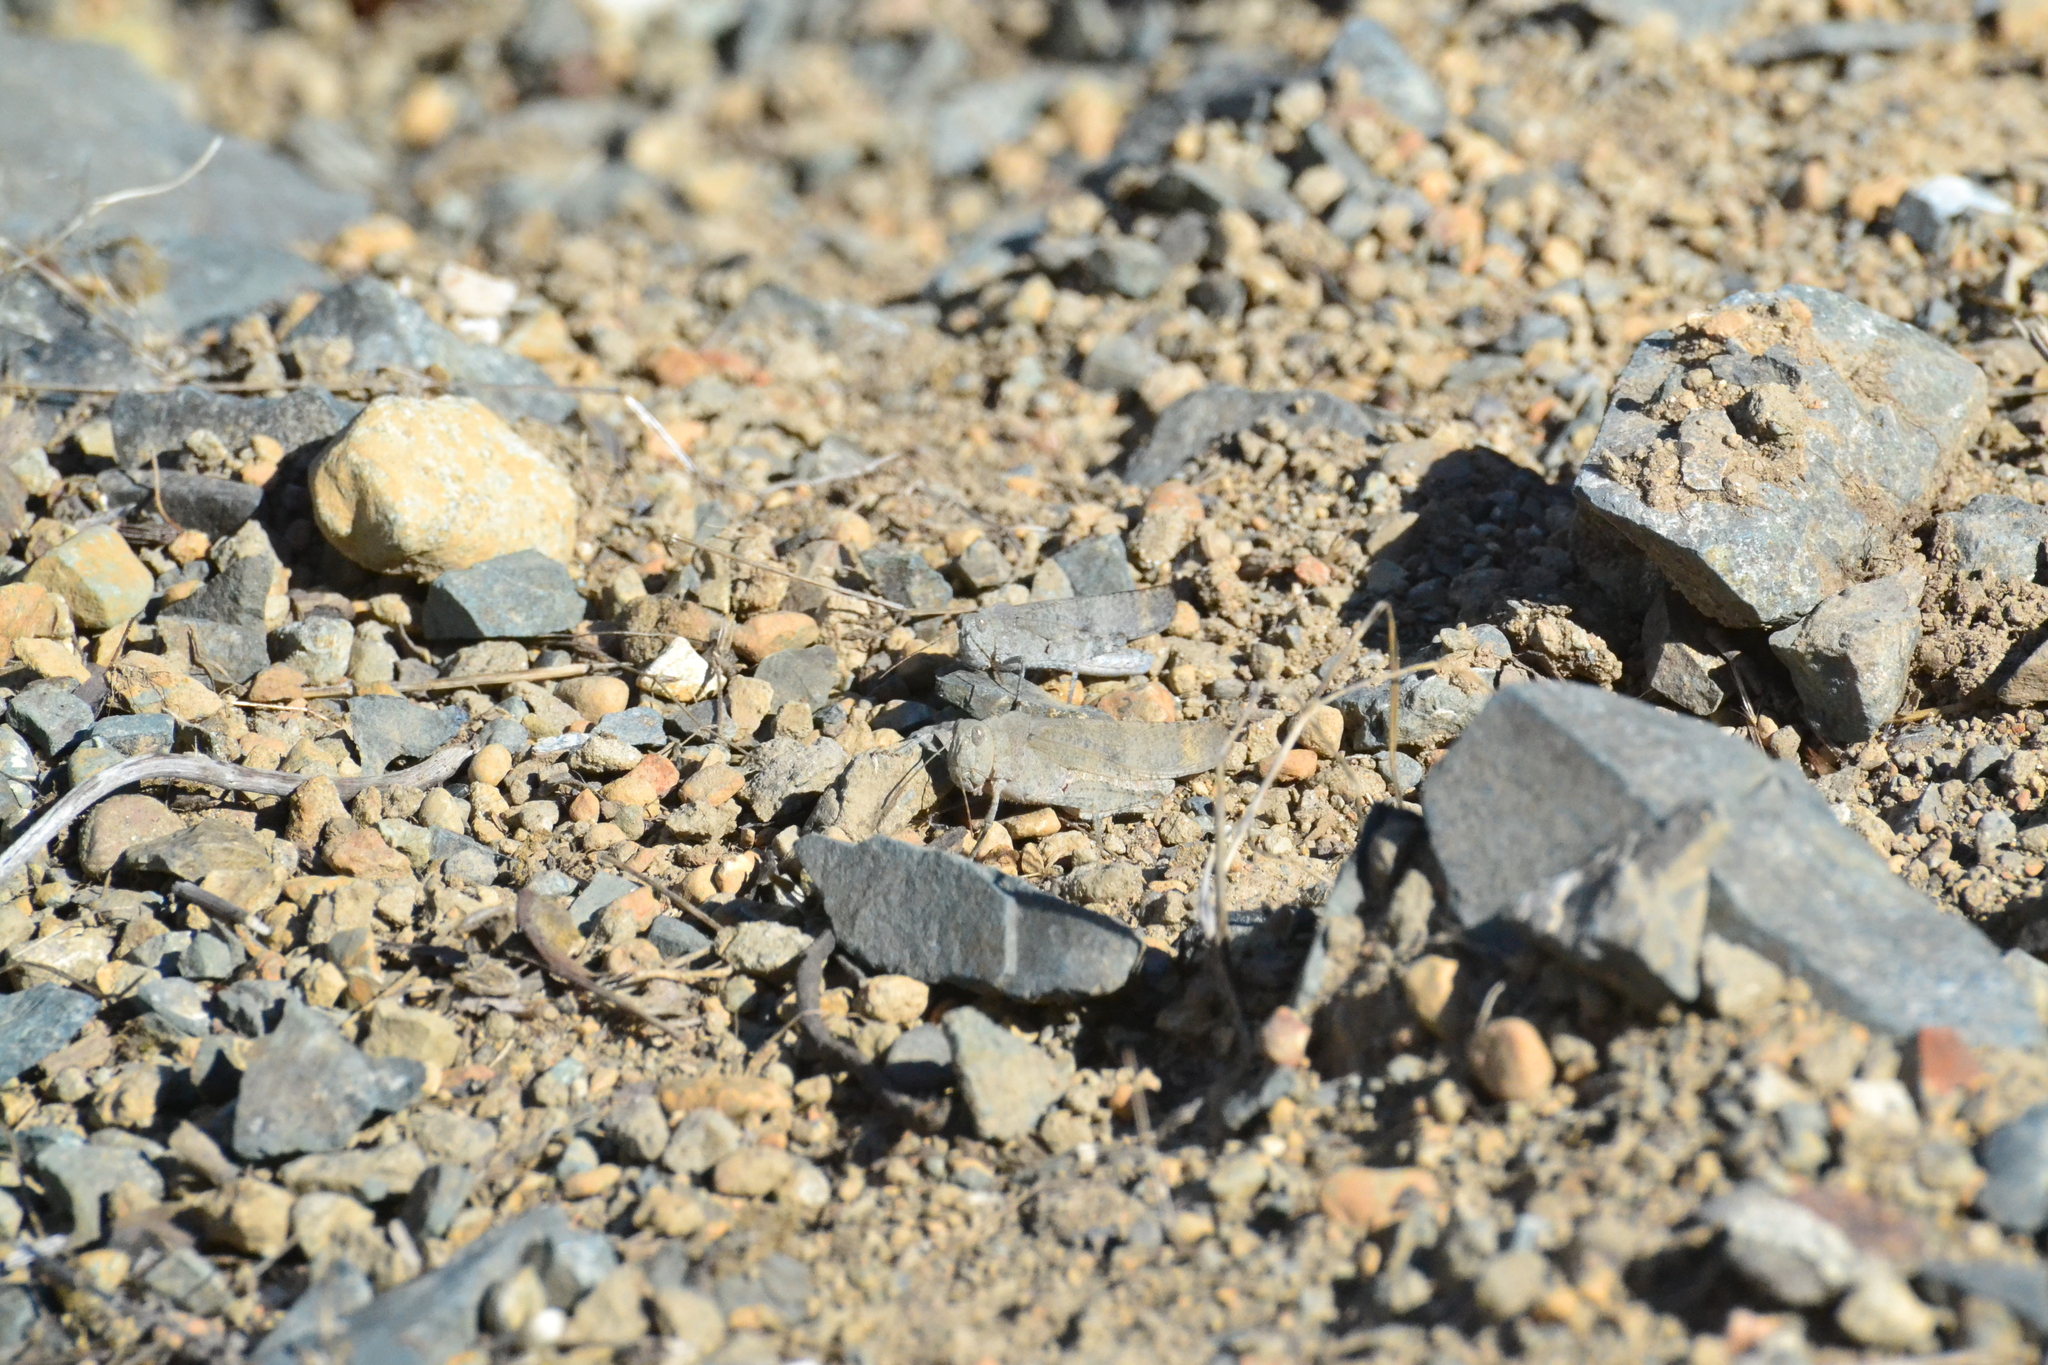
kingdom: Animalia
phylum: Arthropoda
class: Insecta
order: Orthoptera
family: Acrididae
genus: Dissosteira
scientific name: Dissosteira carolina
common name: Carolina grasshopper
